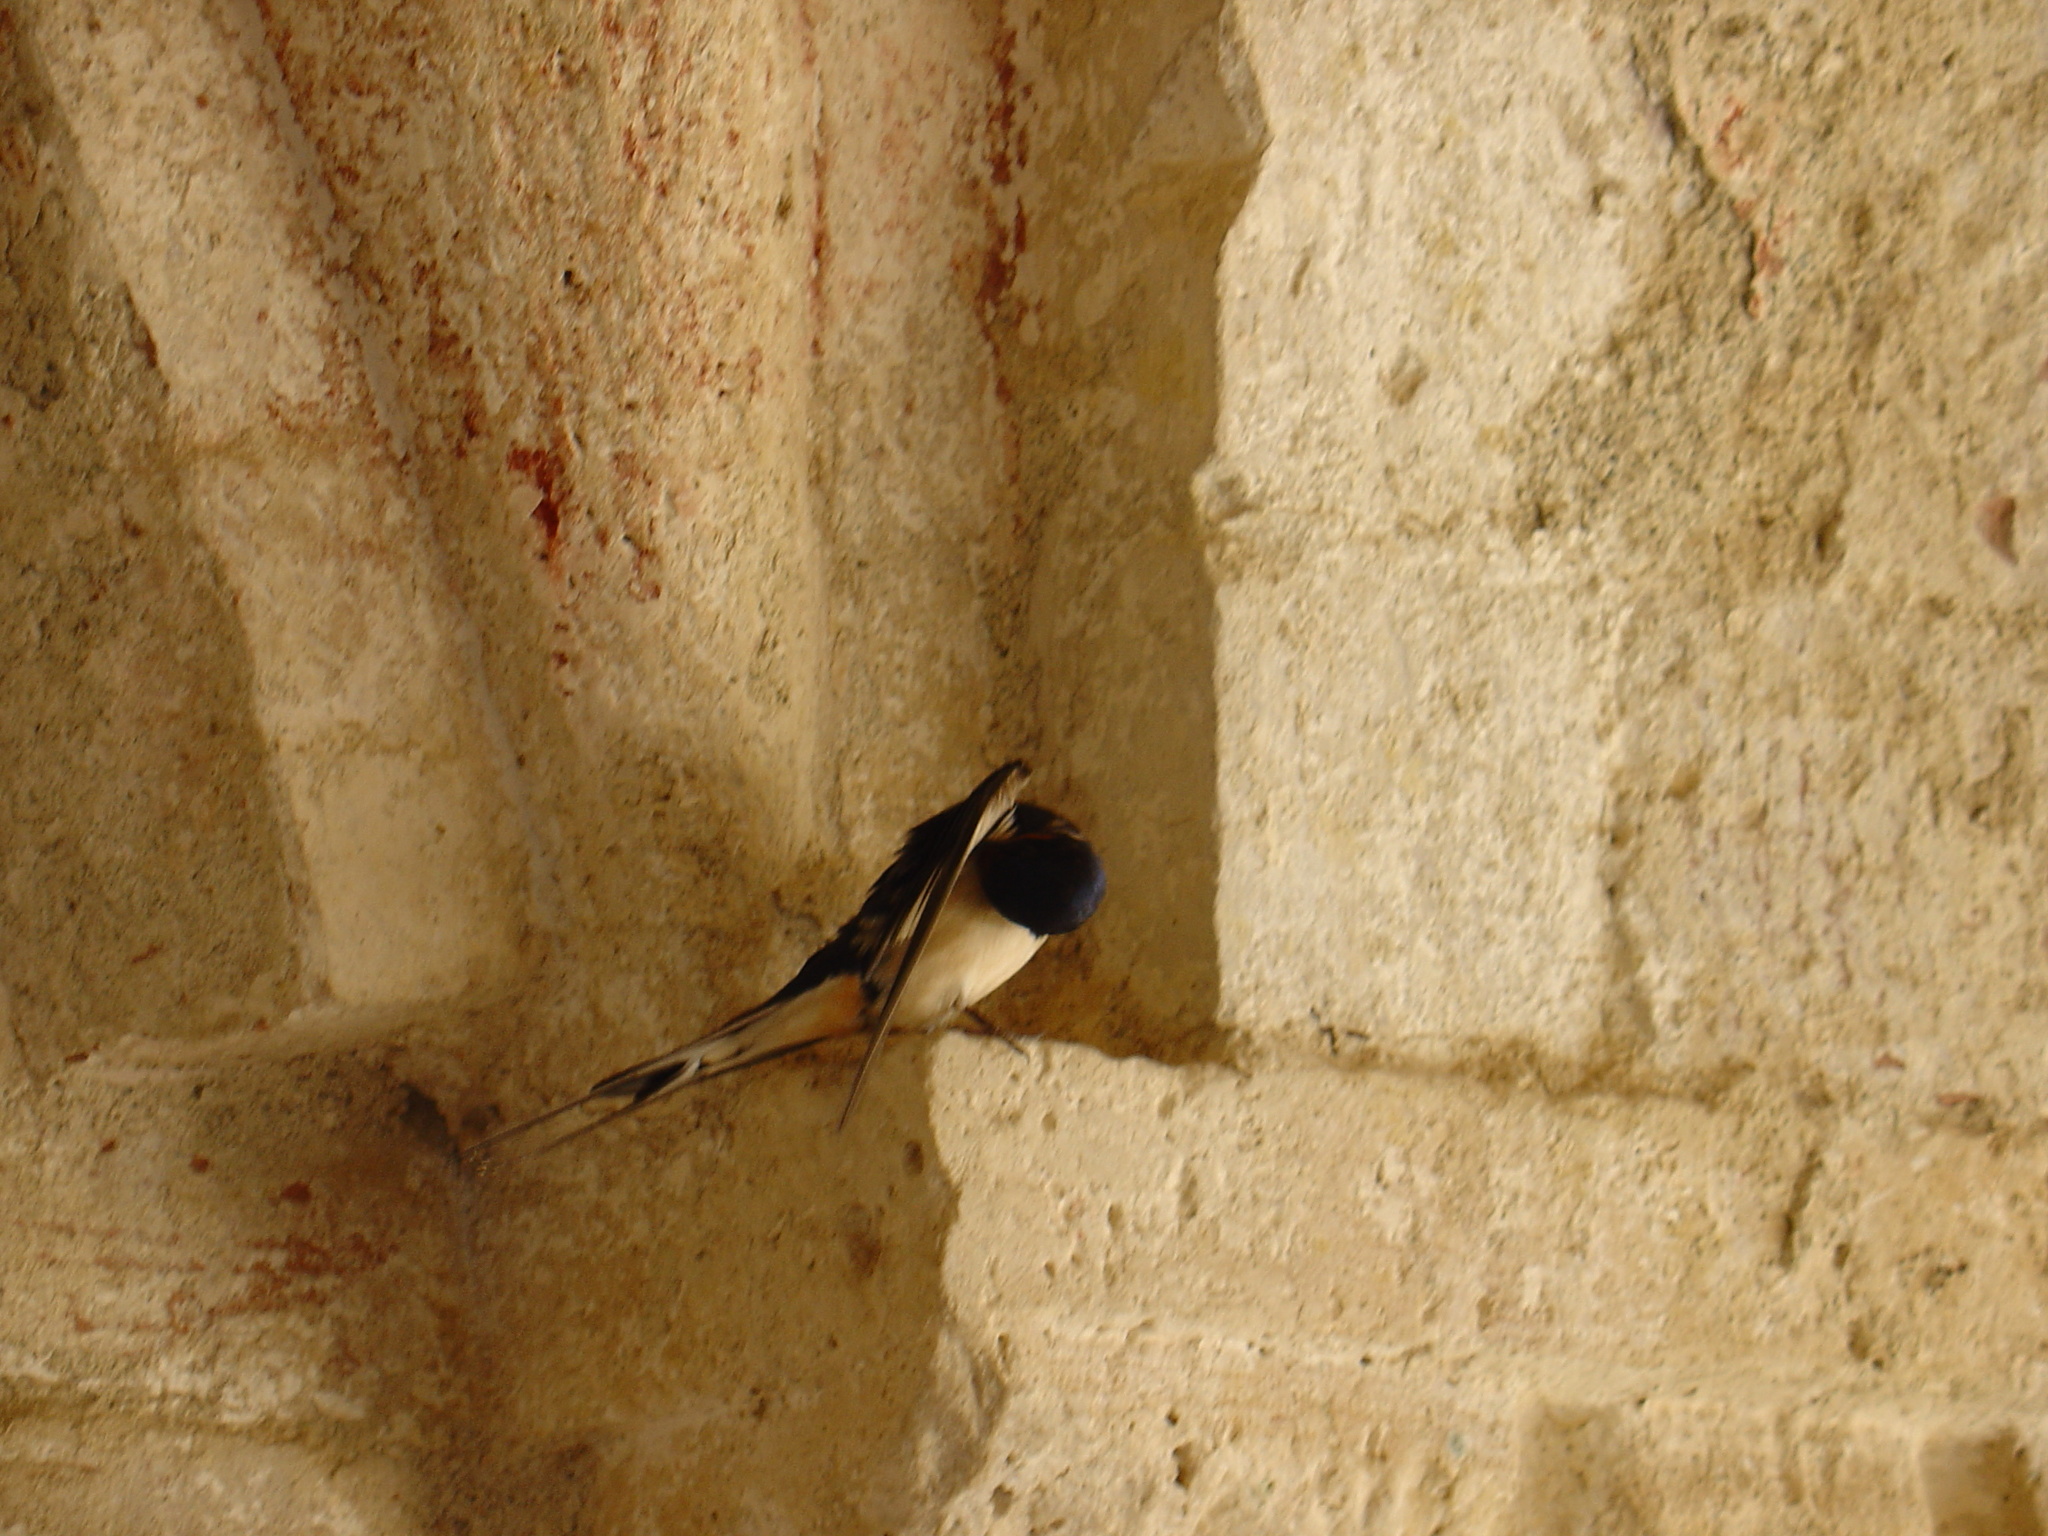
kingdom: Animalia
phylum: Chordata
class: Aves
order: Passeriformes
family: Hirundinidae
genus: Hirundo
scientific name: Hirundo rustica
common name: Barn swallow
